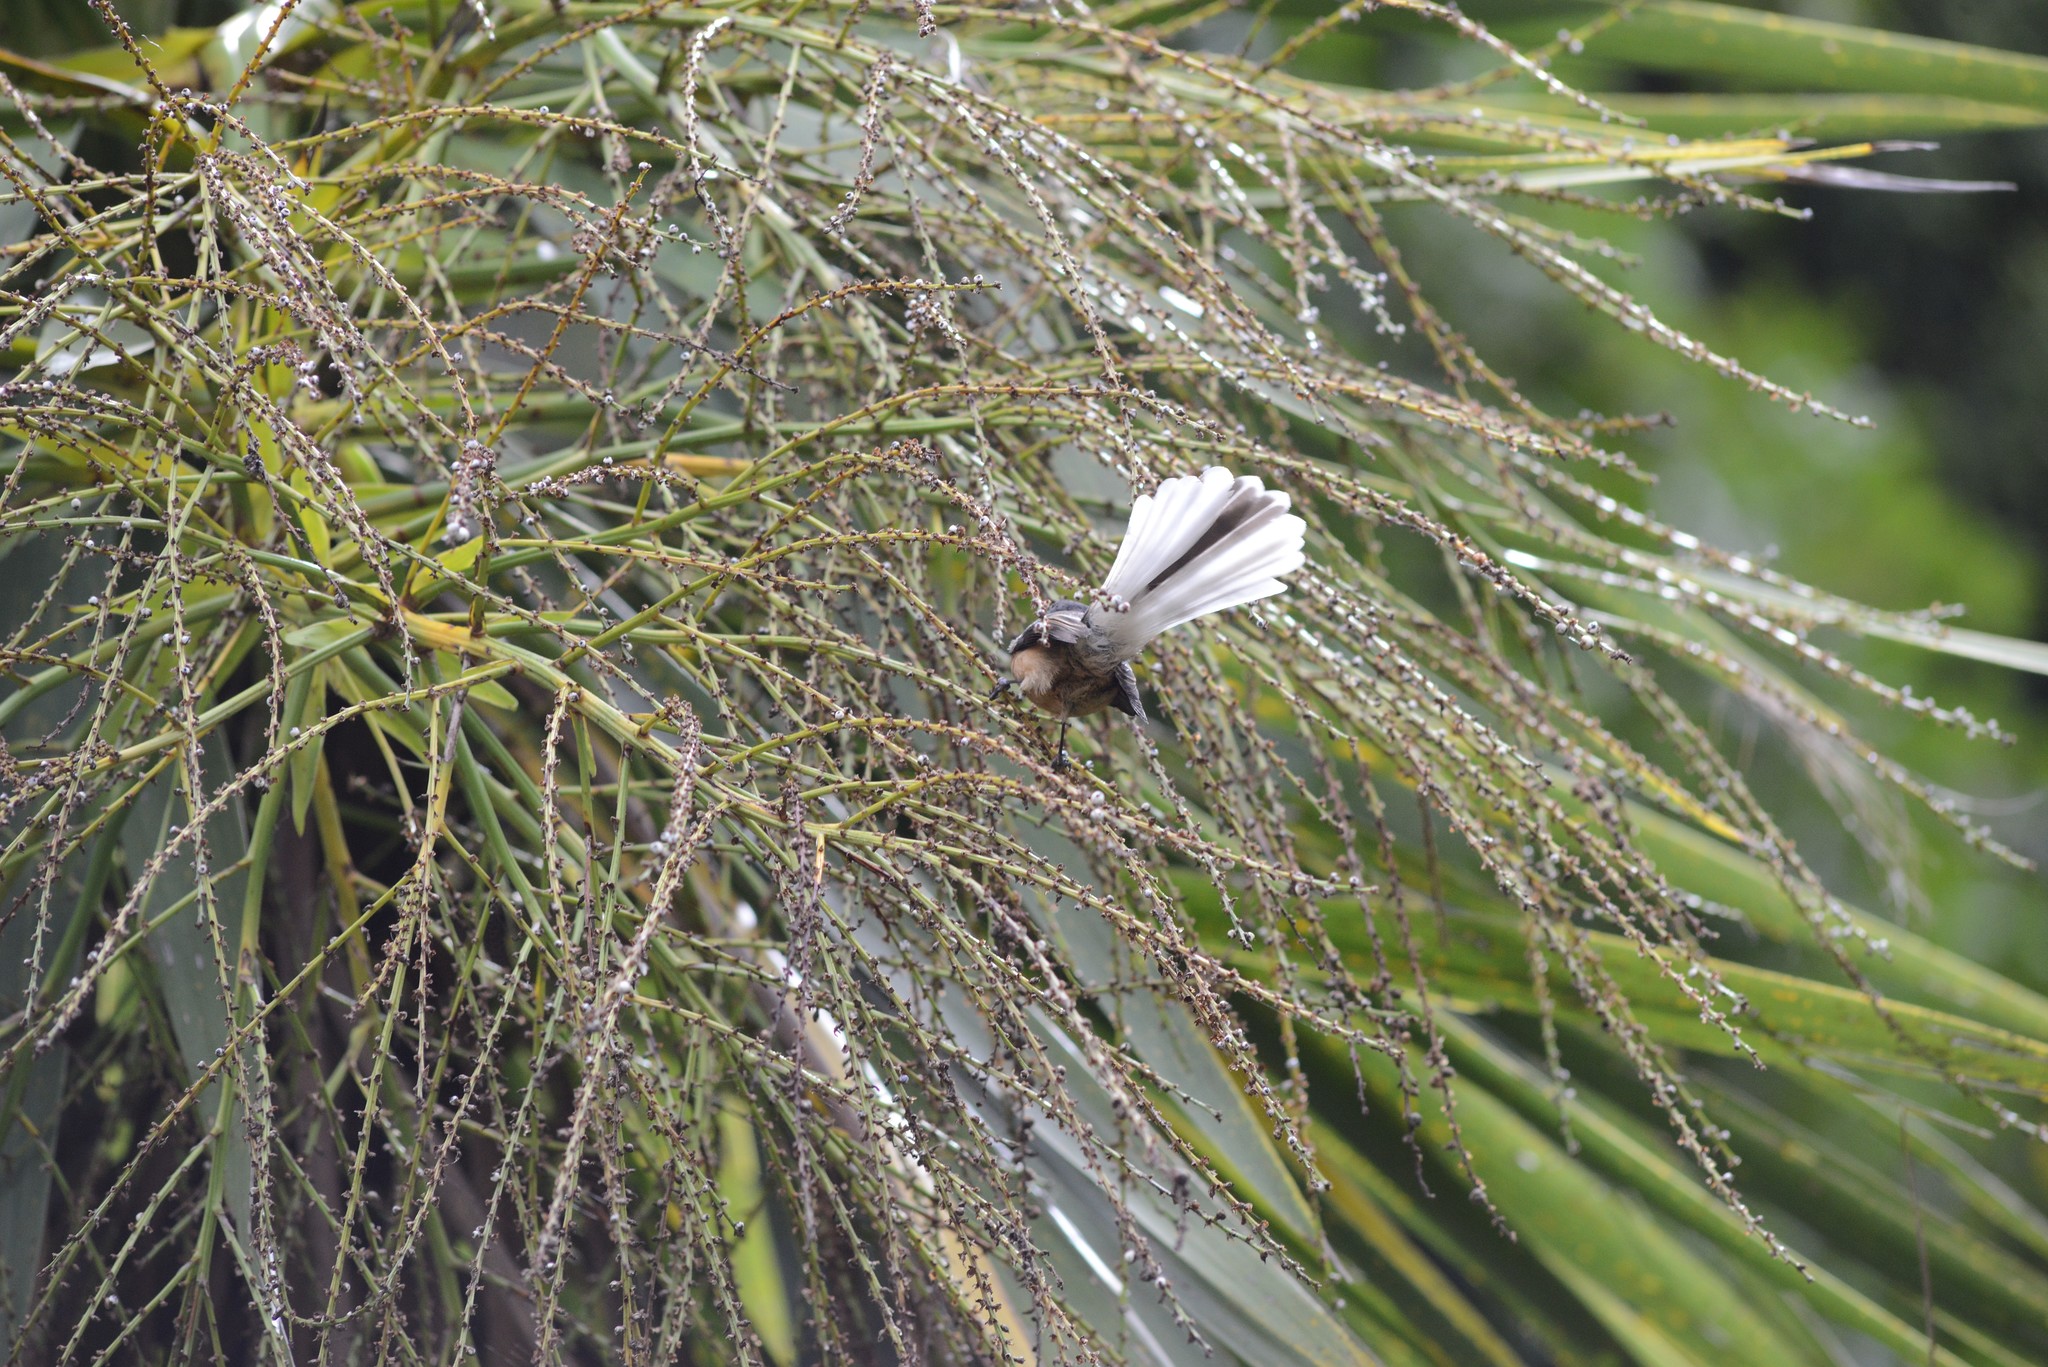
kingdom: Animalia
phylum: Chordata
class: Aves
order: Passeriformes
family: Rhipiduridae
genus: Rhipidura
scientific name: Rhipidura fuliginosa
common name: New zealand fantail
